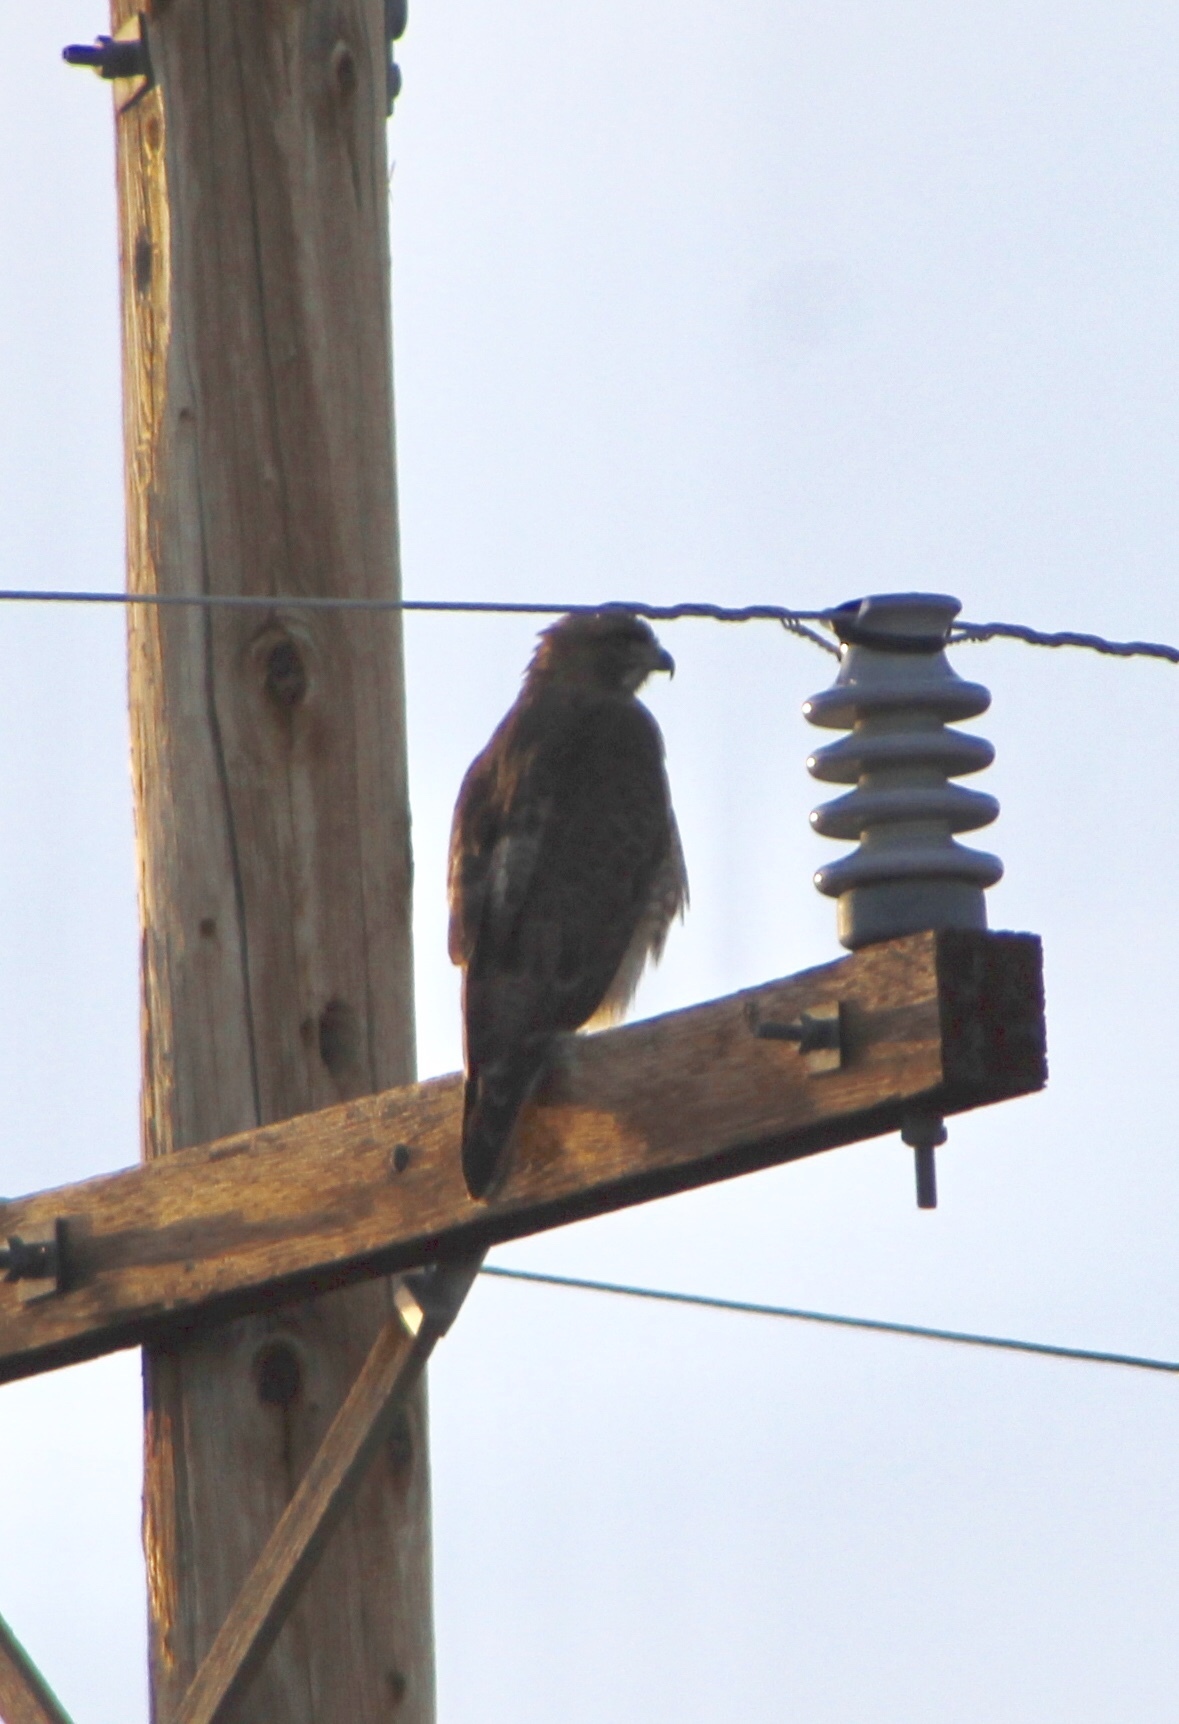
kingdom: Animalia
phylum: Chordata
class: Aves
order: Accipitriformes
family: Accipitridae
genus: Buteo
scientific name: Buteo jamaicensis
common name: Red-tailed hawk
